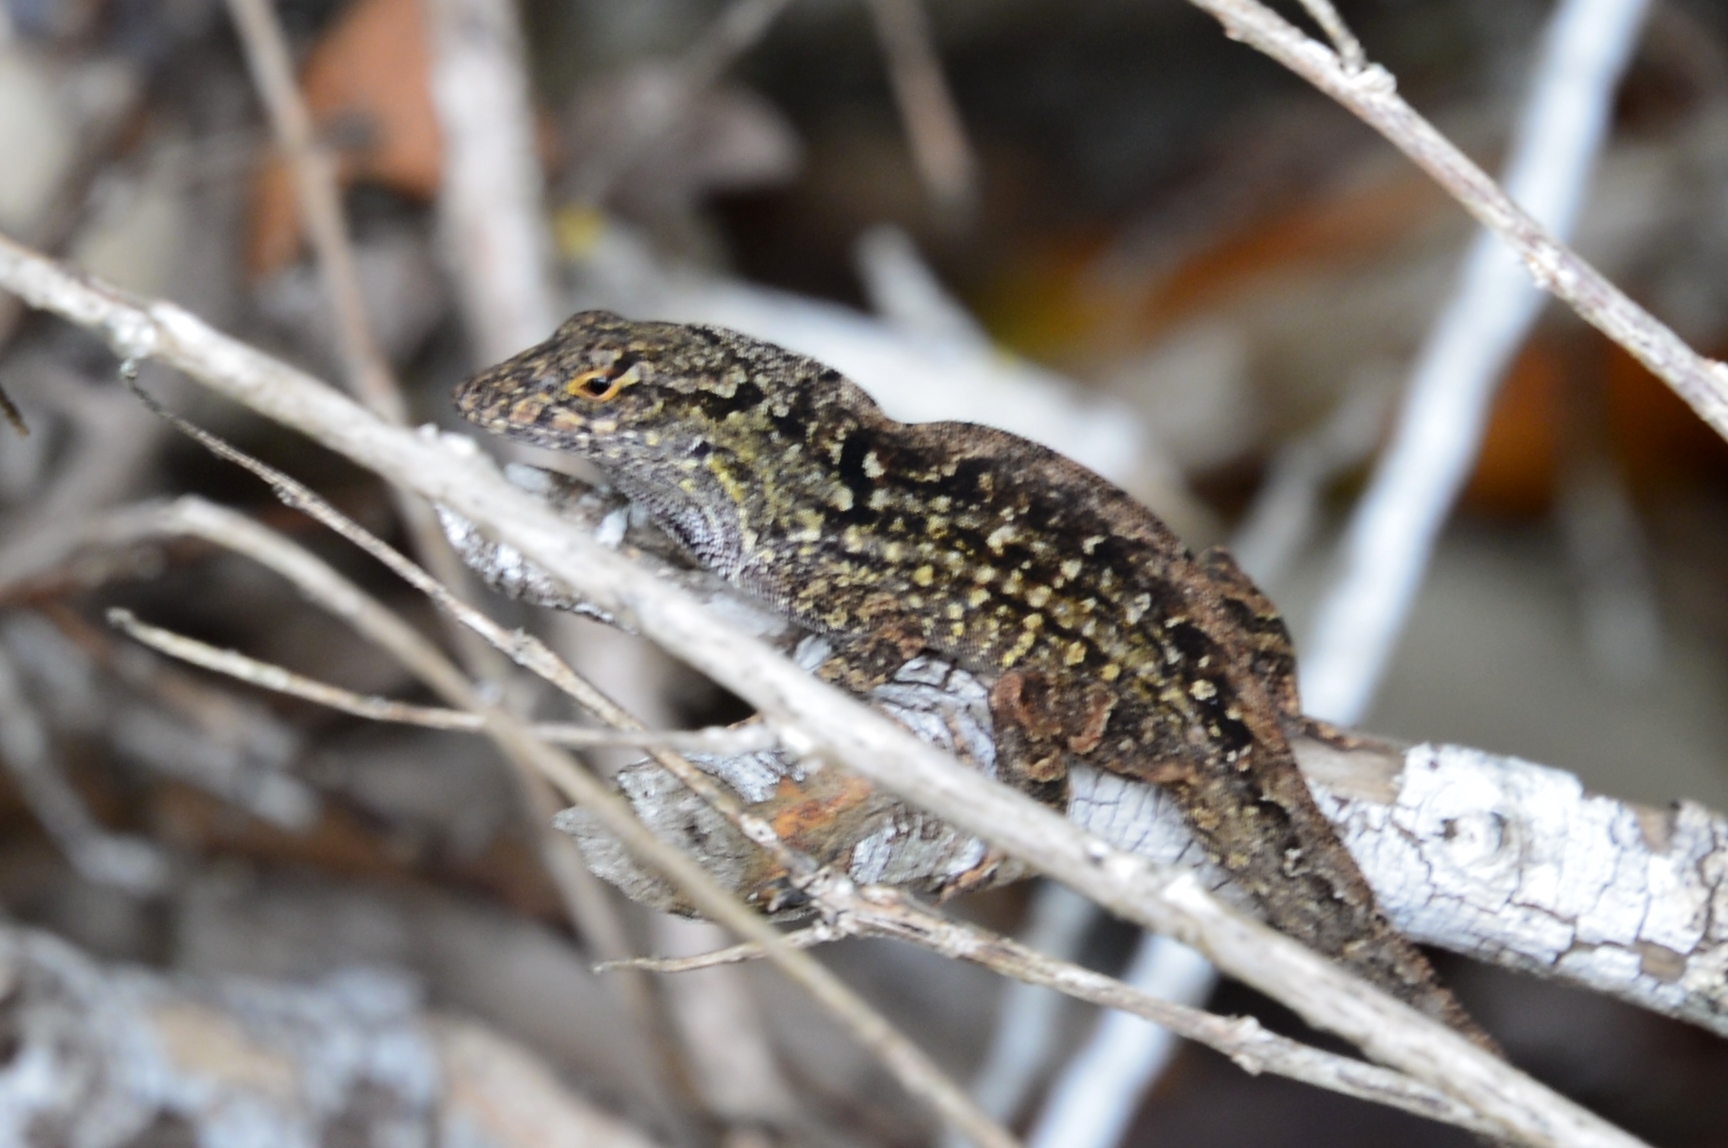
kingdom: Animalia
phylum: Chordata
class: Squamata
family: Dactyloidae
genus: Anolis
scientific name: Anolis sagrei
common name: Brown anole
